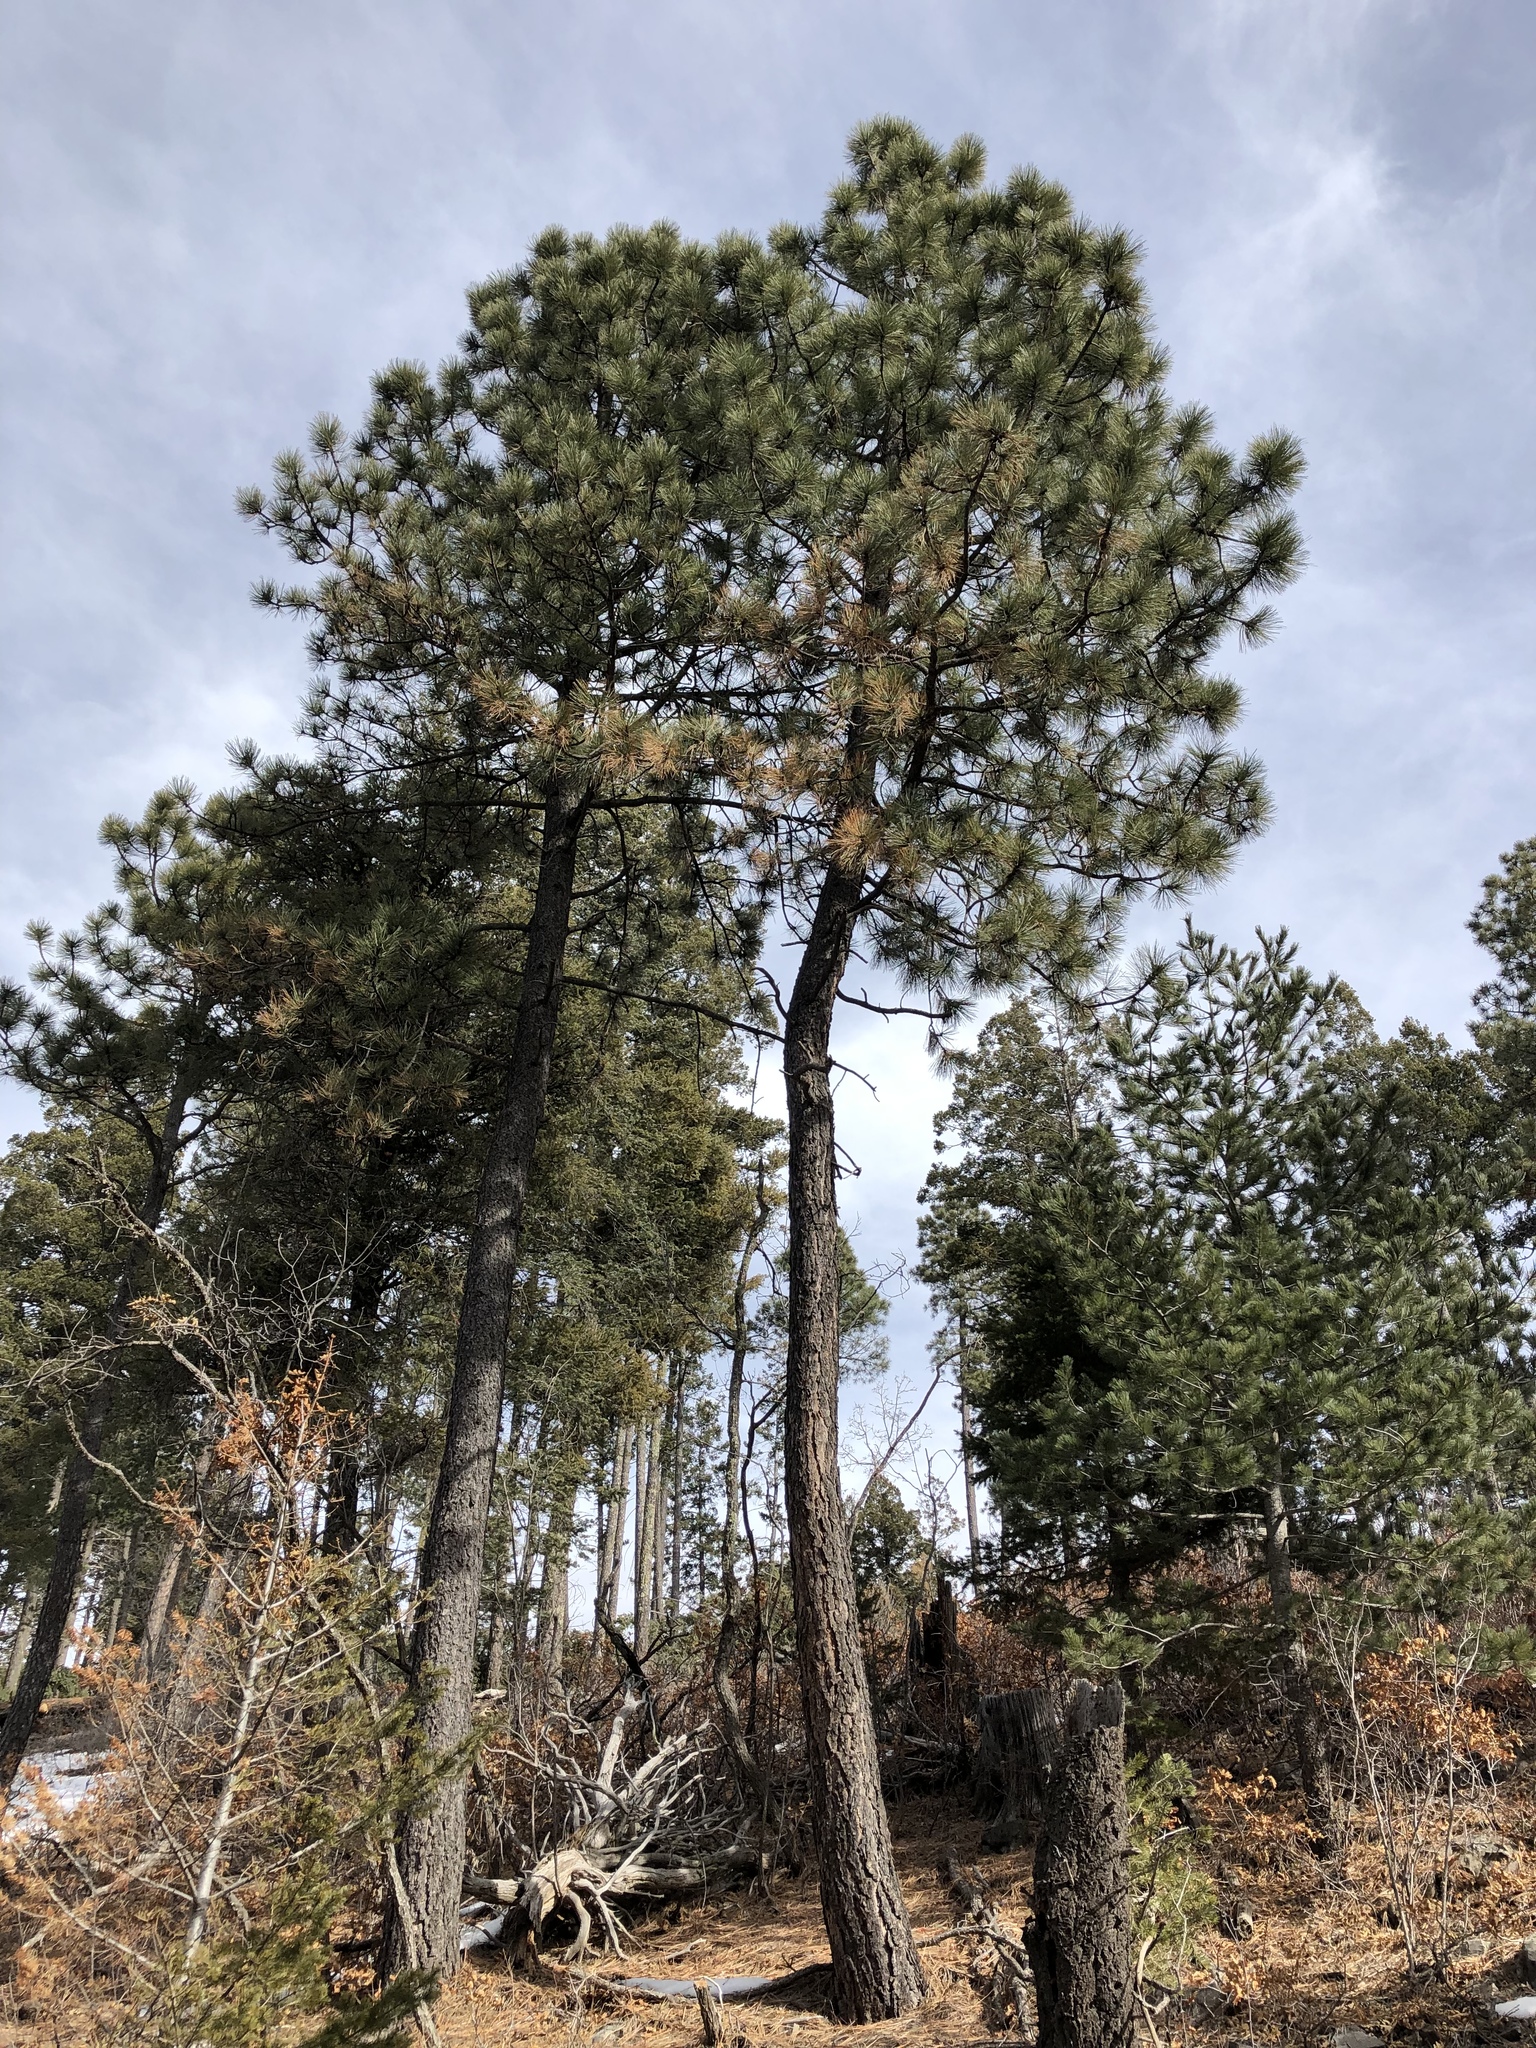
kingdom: Plantae
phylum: Tracheophyta
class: Pinopsida
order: Pinales
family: Pinaceae
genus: Pinus
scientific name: Pinus ponderosa
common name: Western yellow-pine
